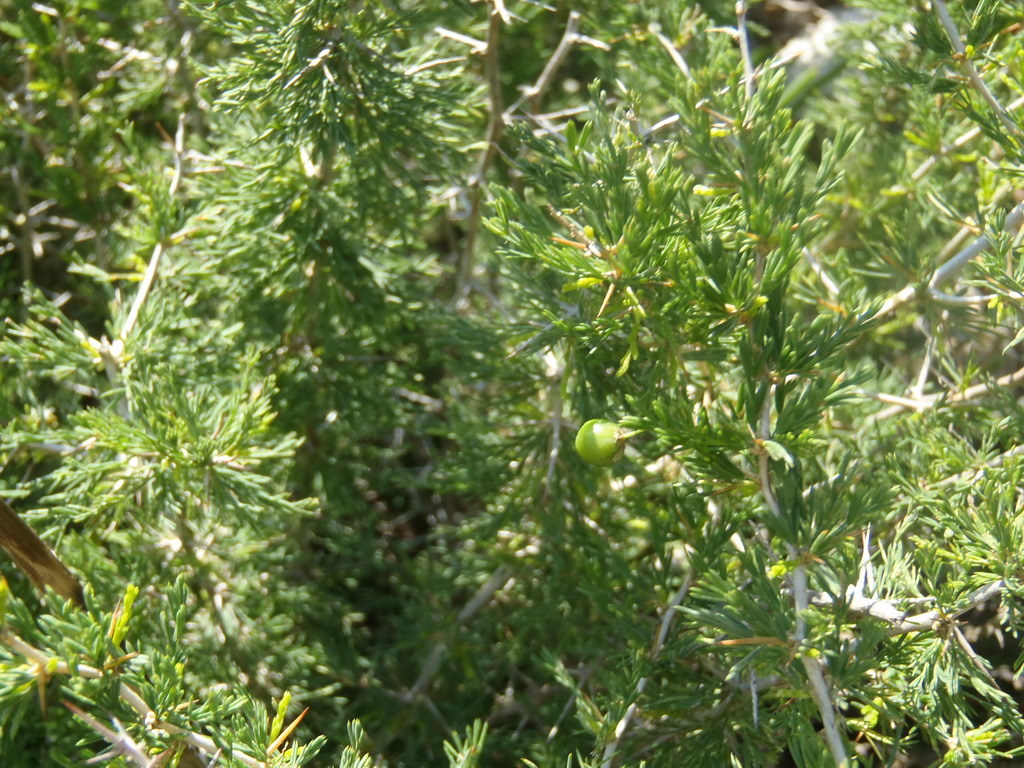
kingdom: Plantae
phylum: Tracheophyta
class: Liliopsida
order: Asparagales
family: Asparagaceae
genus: Asparagus
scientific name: Asparagus suaveolens
